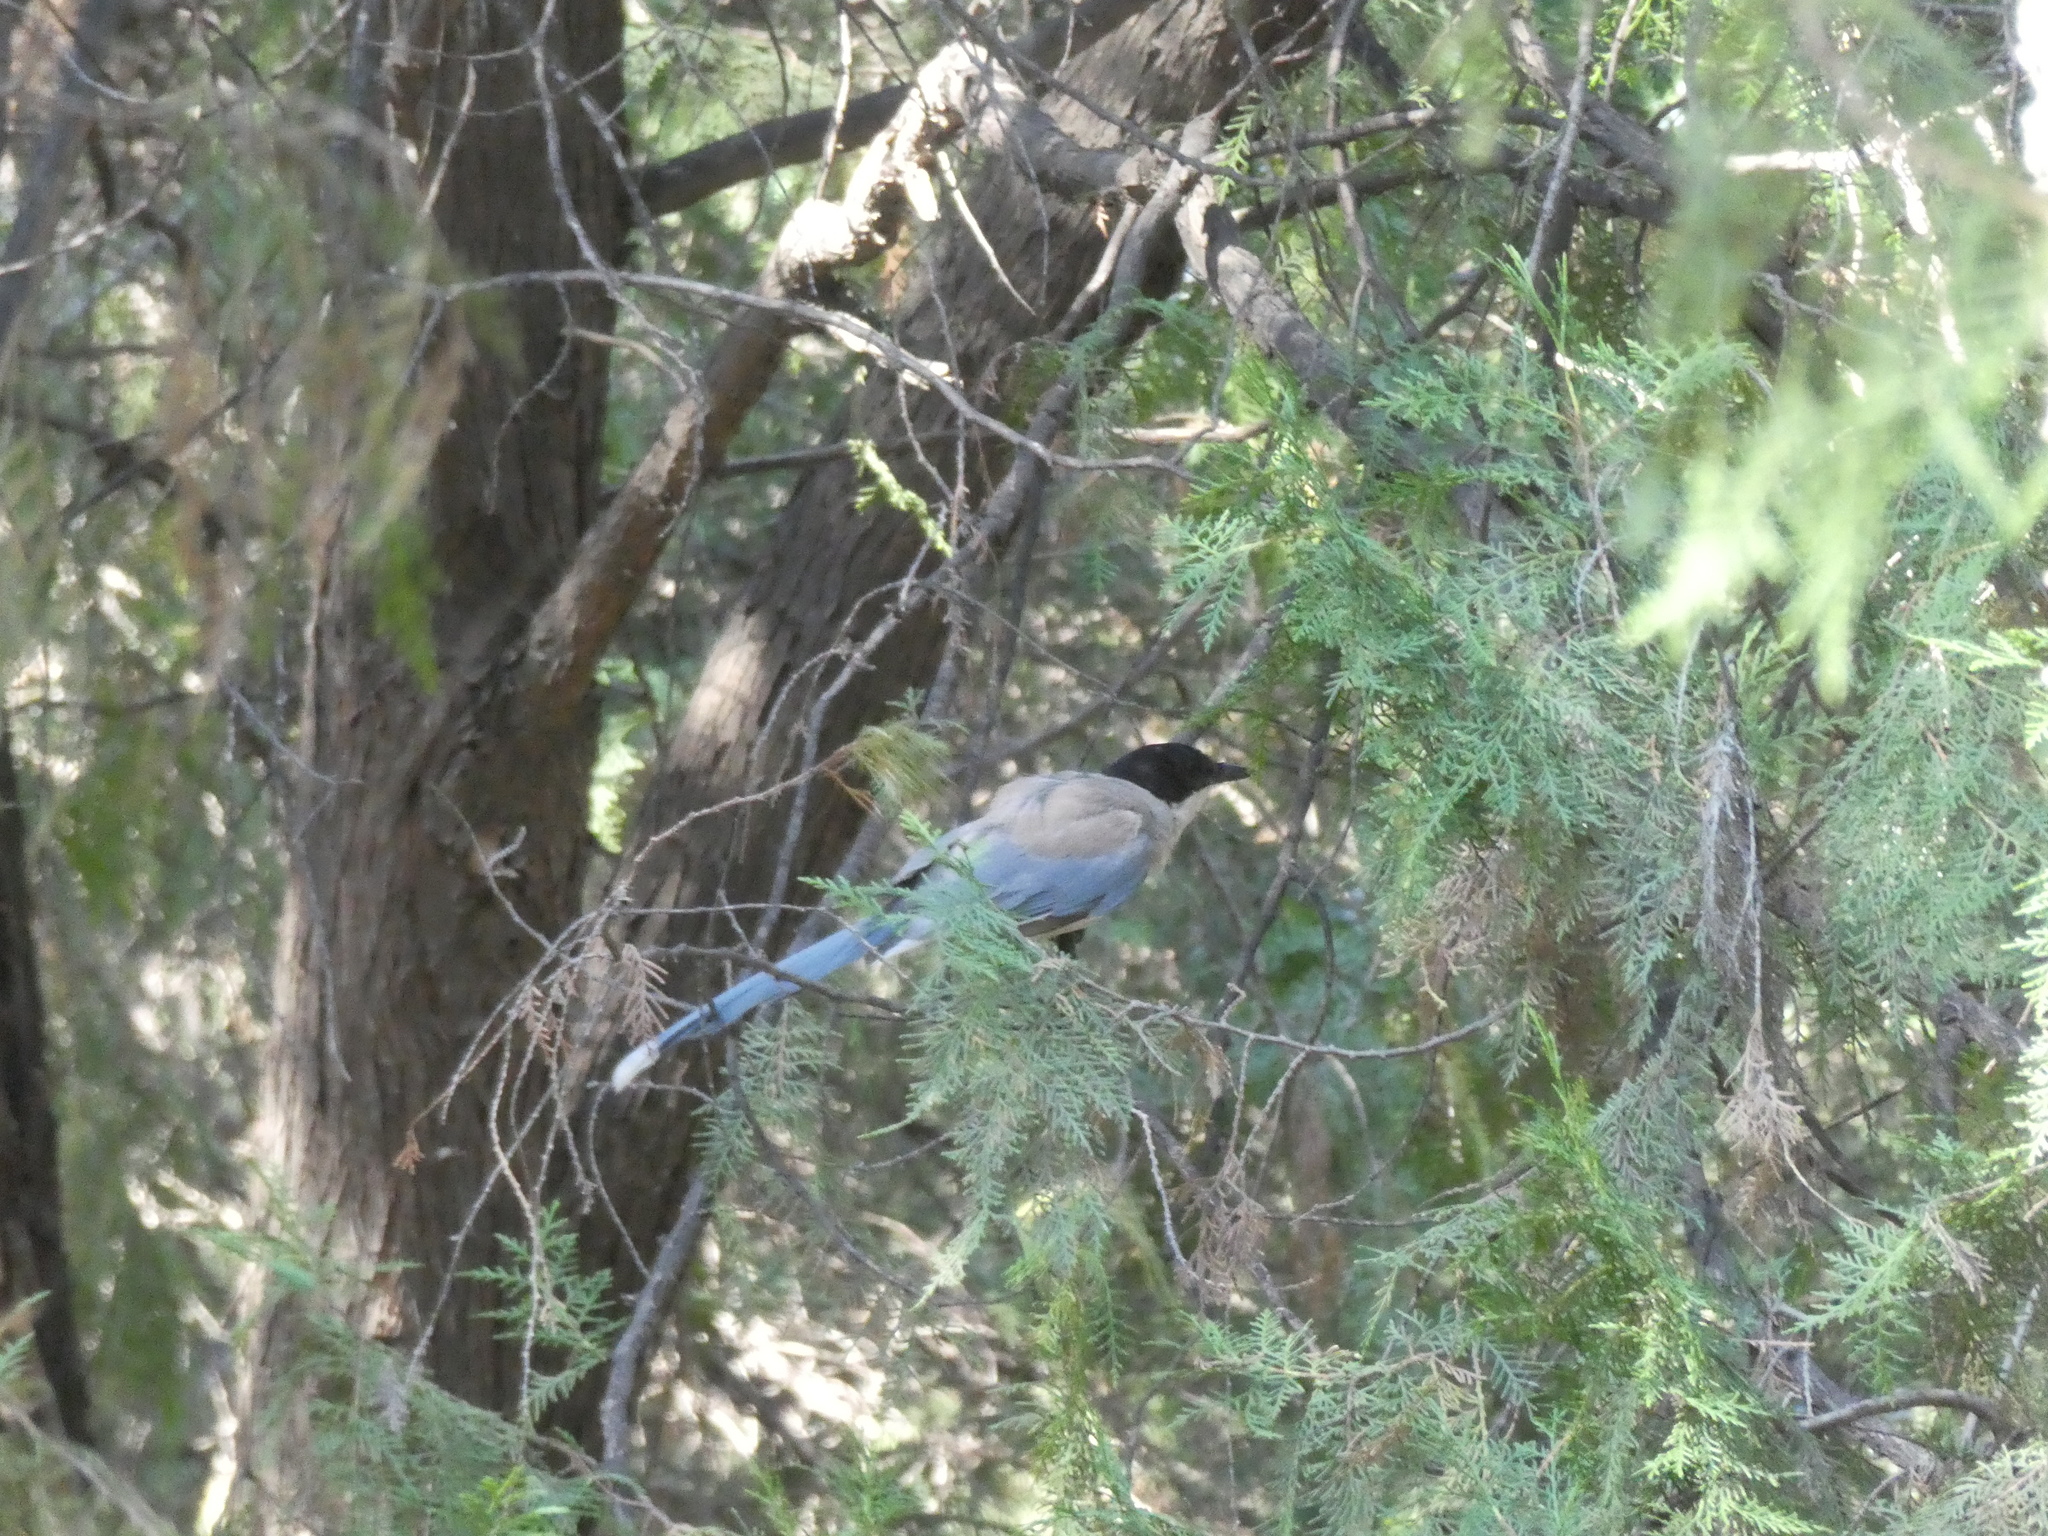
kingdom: Animalia
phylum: Chordata
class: Aves
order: Passeriformes
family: Corvidae
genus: Cyanopica
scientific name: Cyanopica cyanus
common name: Azure-winged magpie
